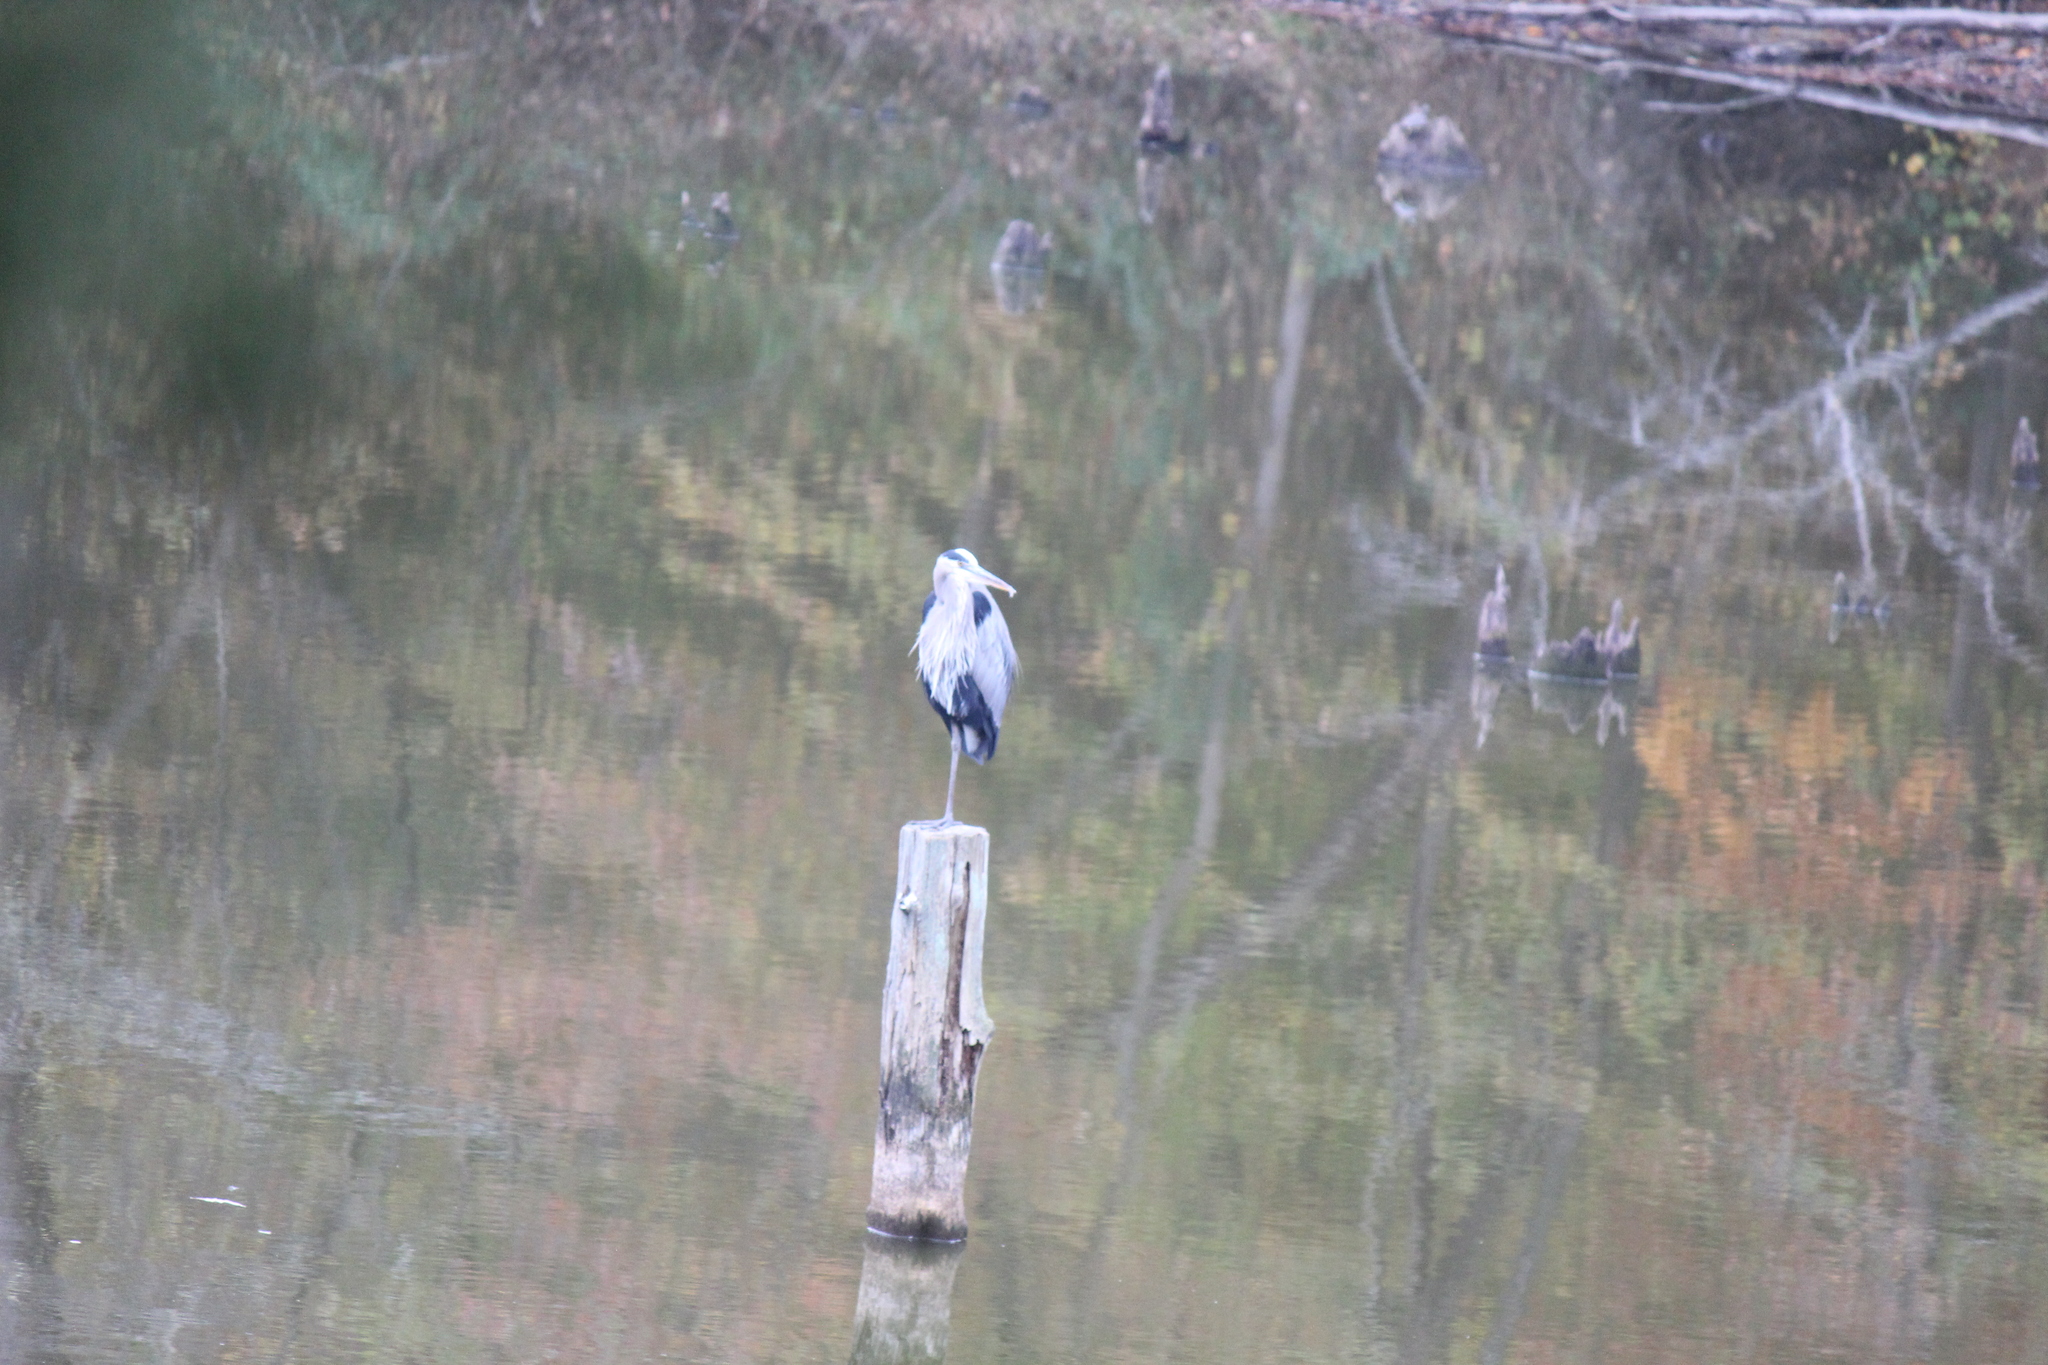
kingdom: Animalia
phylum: Chordata
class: Aves
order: Pelecaniformes
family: Ardeidae
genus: Ardea
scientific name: Ardea herodias
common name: Great blue heron
